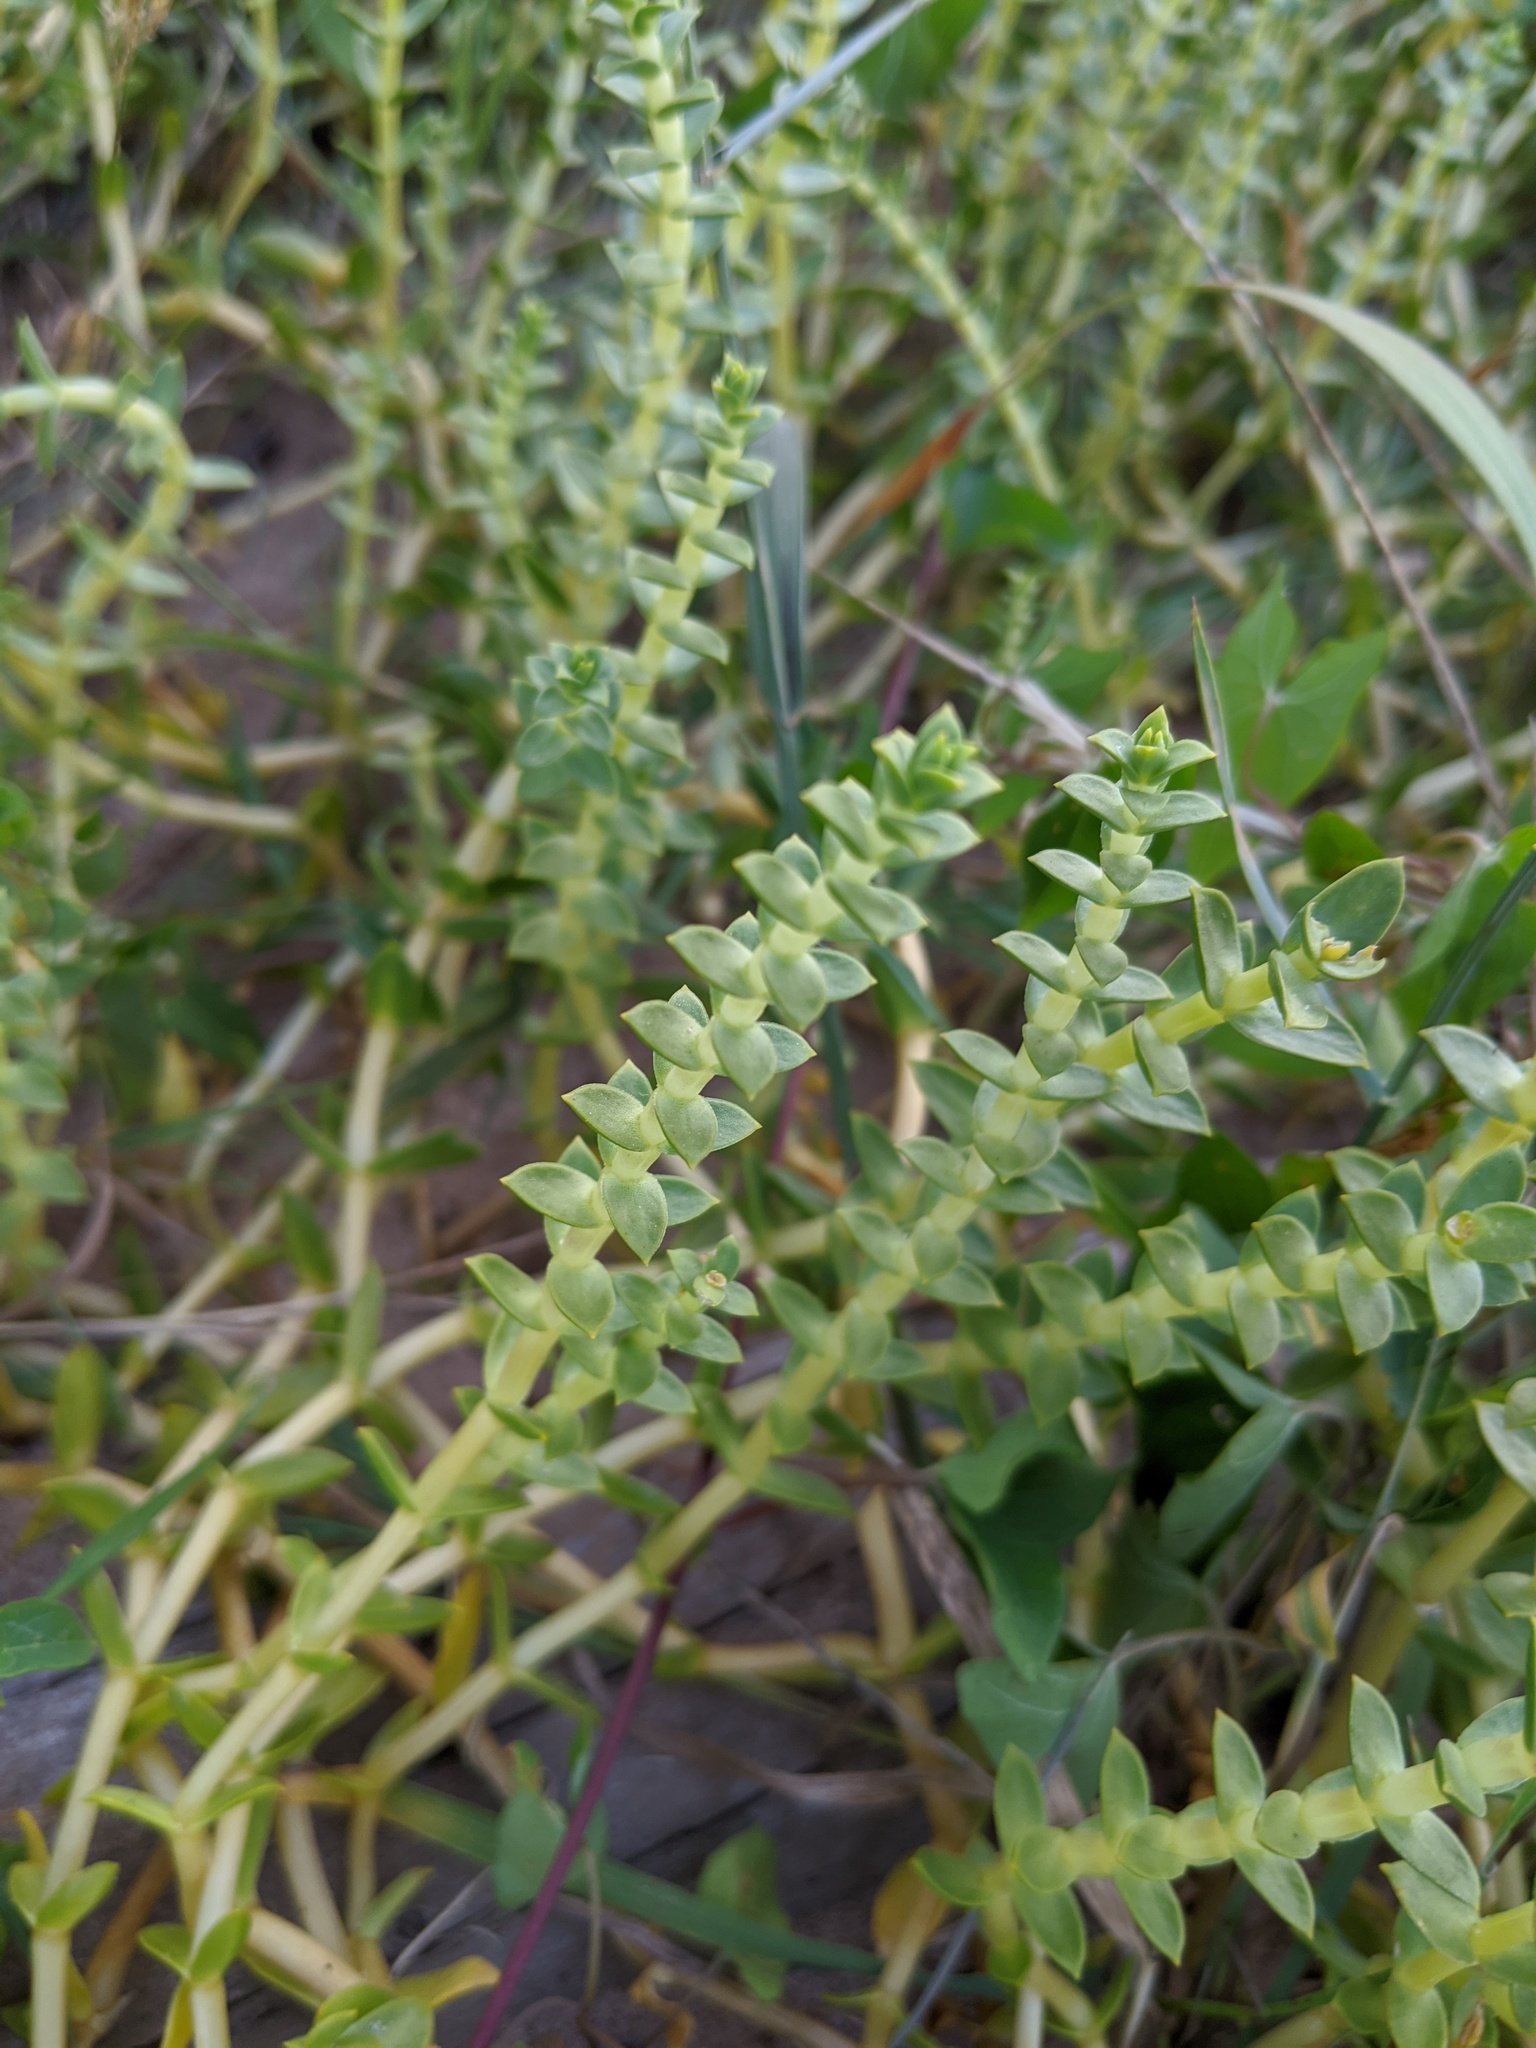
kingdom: Plantae
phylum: Tracheophyta
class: Magnoliopsida
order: Caryophyllales
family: Caryophyllaceae
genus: Honckenya
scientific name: Honckenya peploides
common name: Sea sandwort
